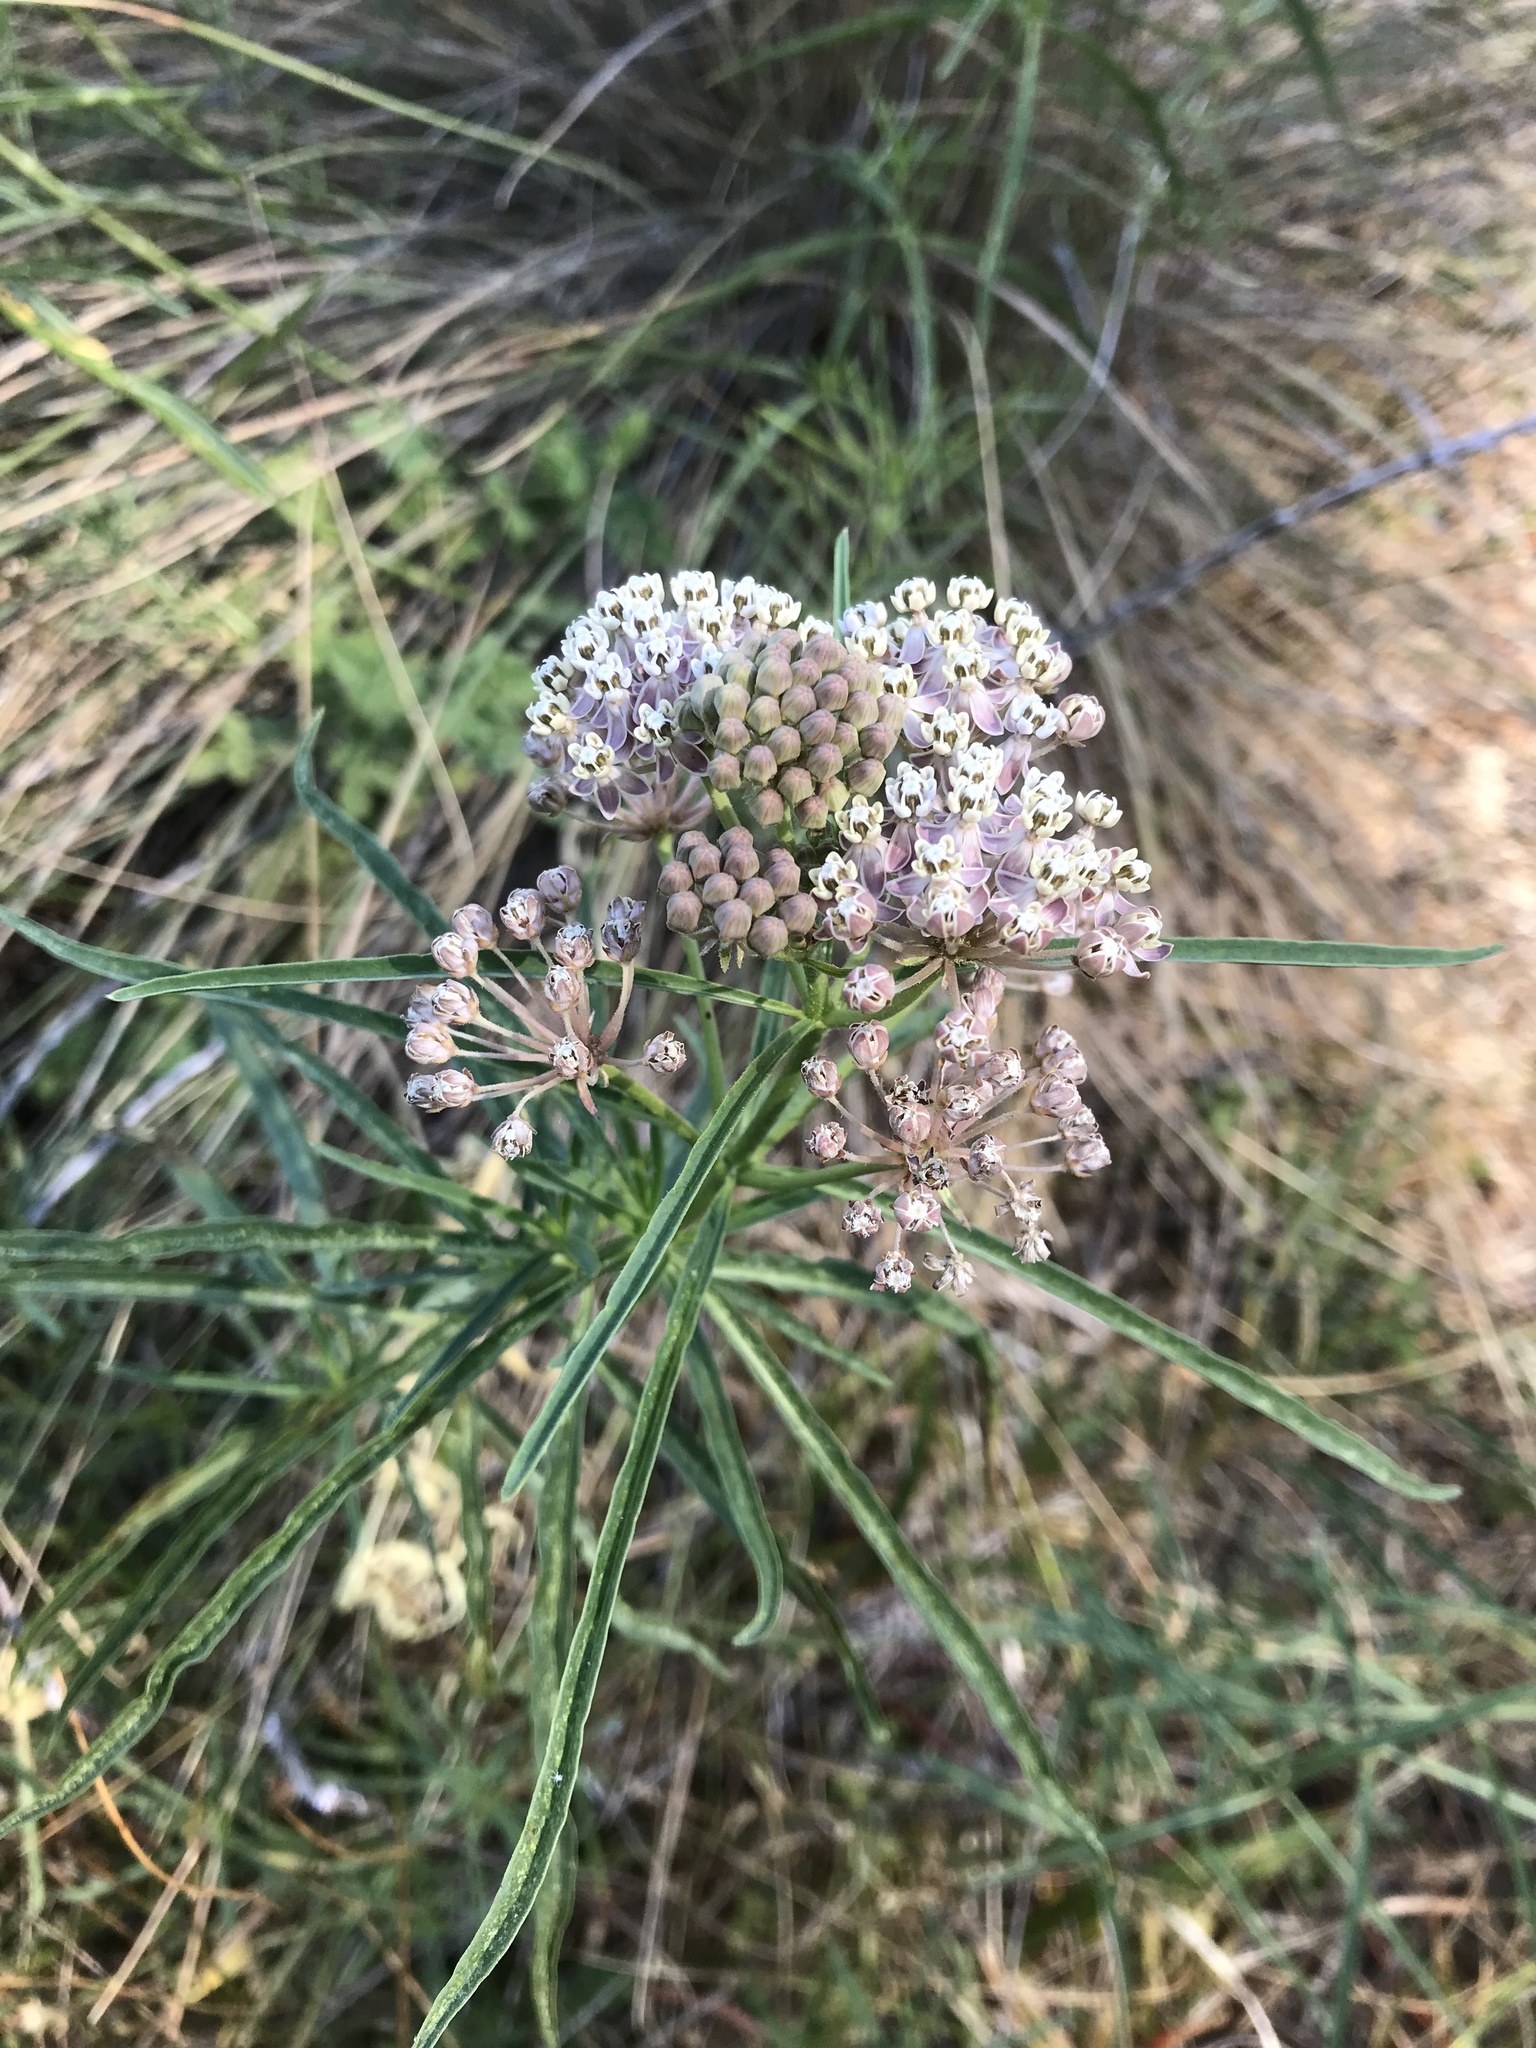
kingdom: Plantae
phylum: Tracheophyta
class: Magnoliopsida
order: Gentianales
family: Apocynaceae
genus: Asclepias
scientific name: Asclepias fascicularis
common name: Mexican milkweed
